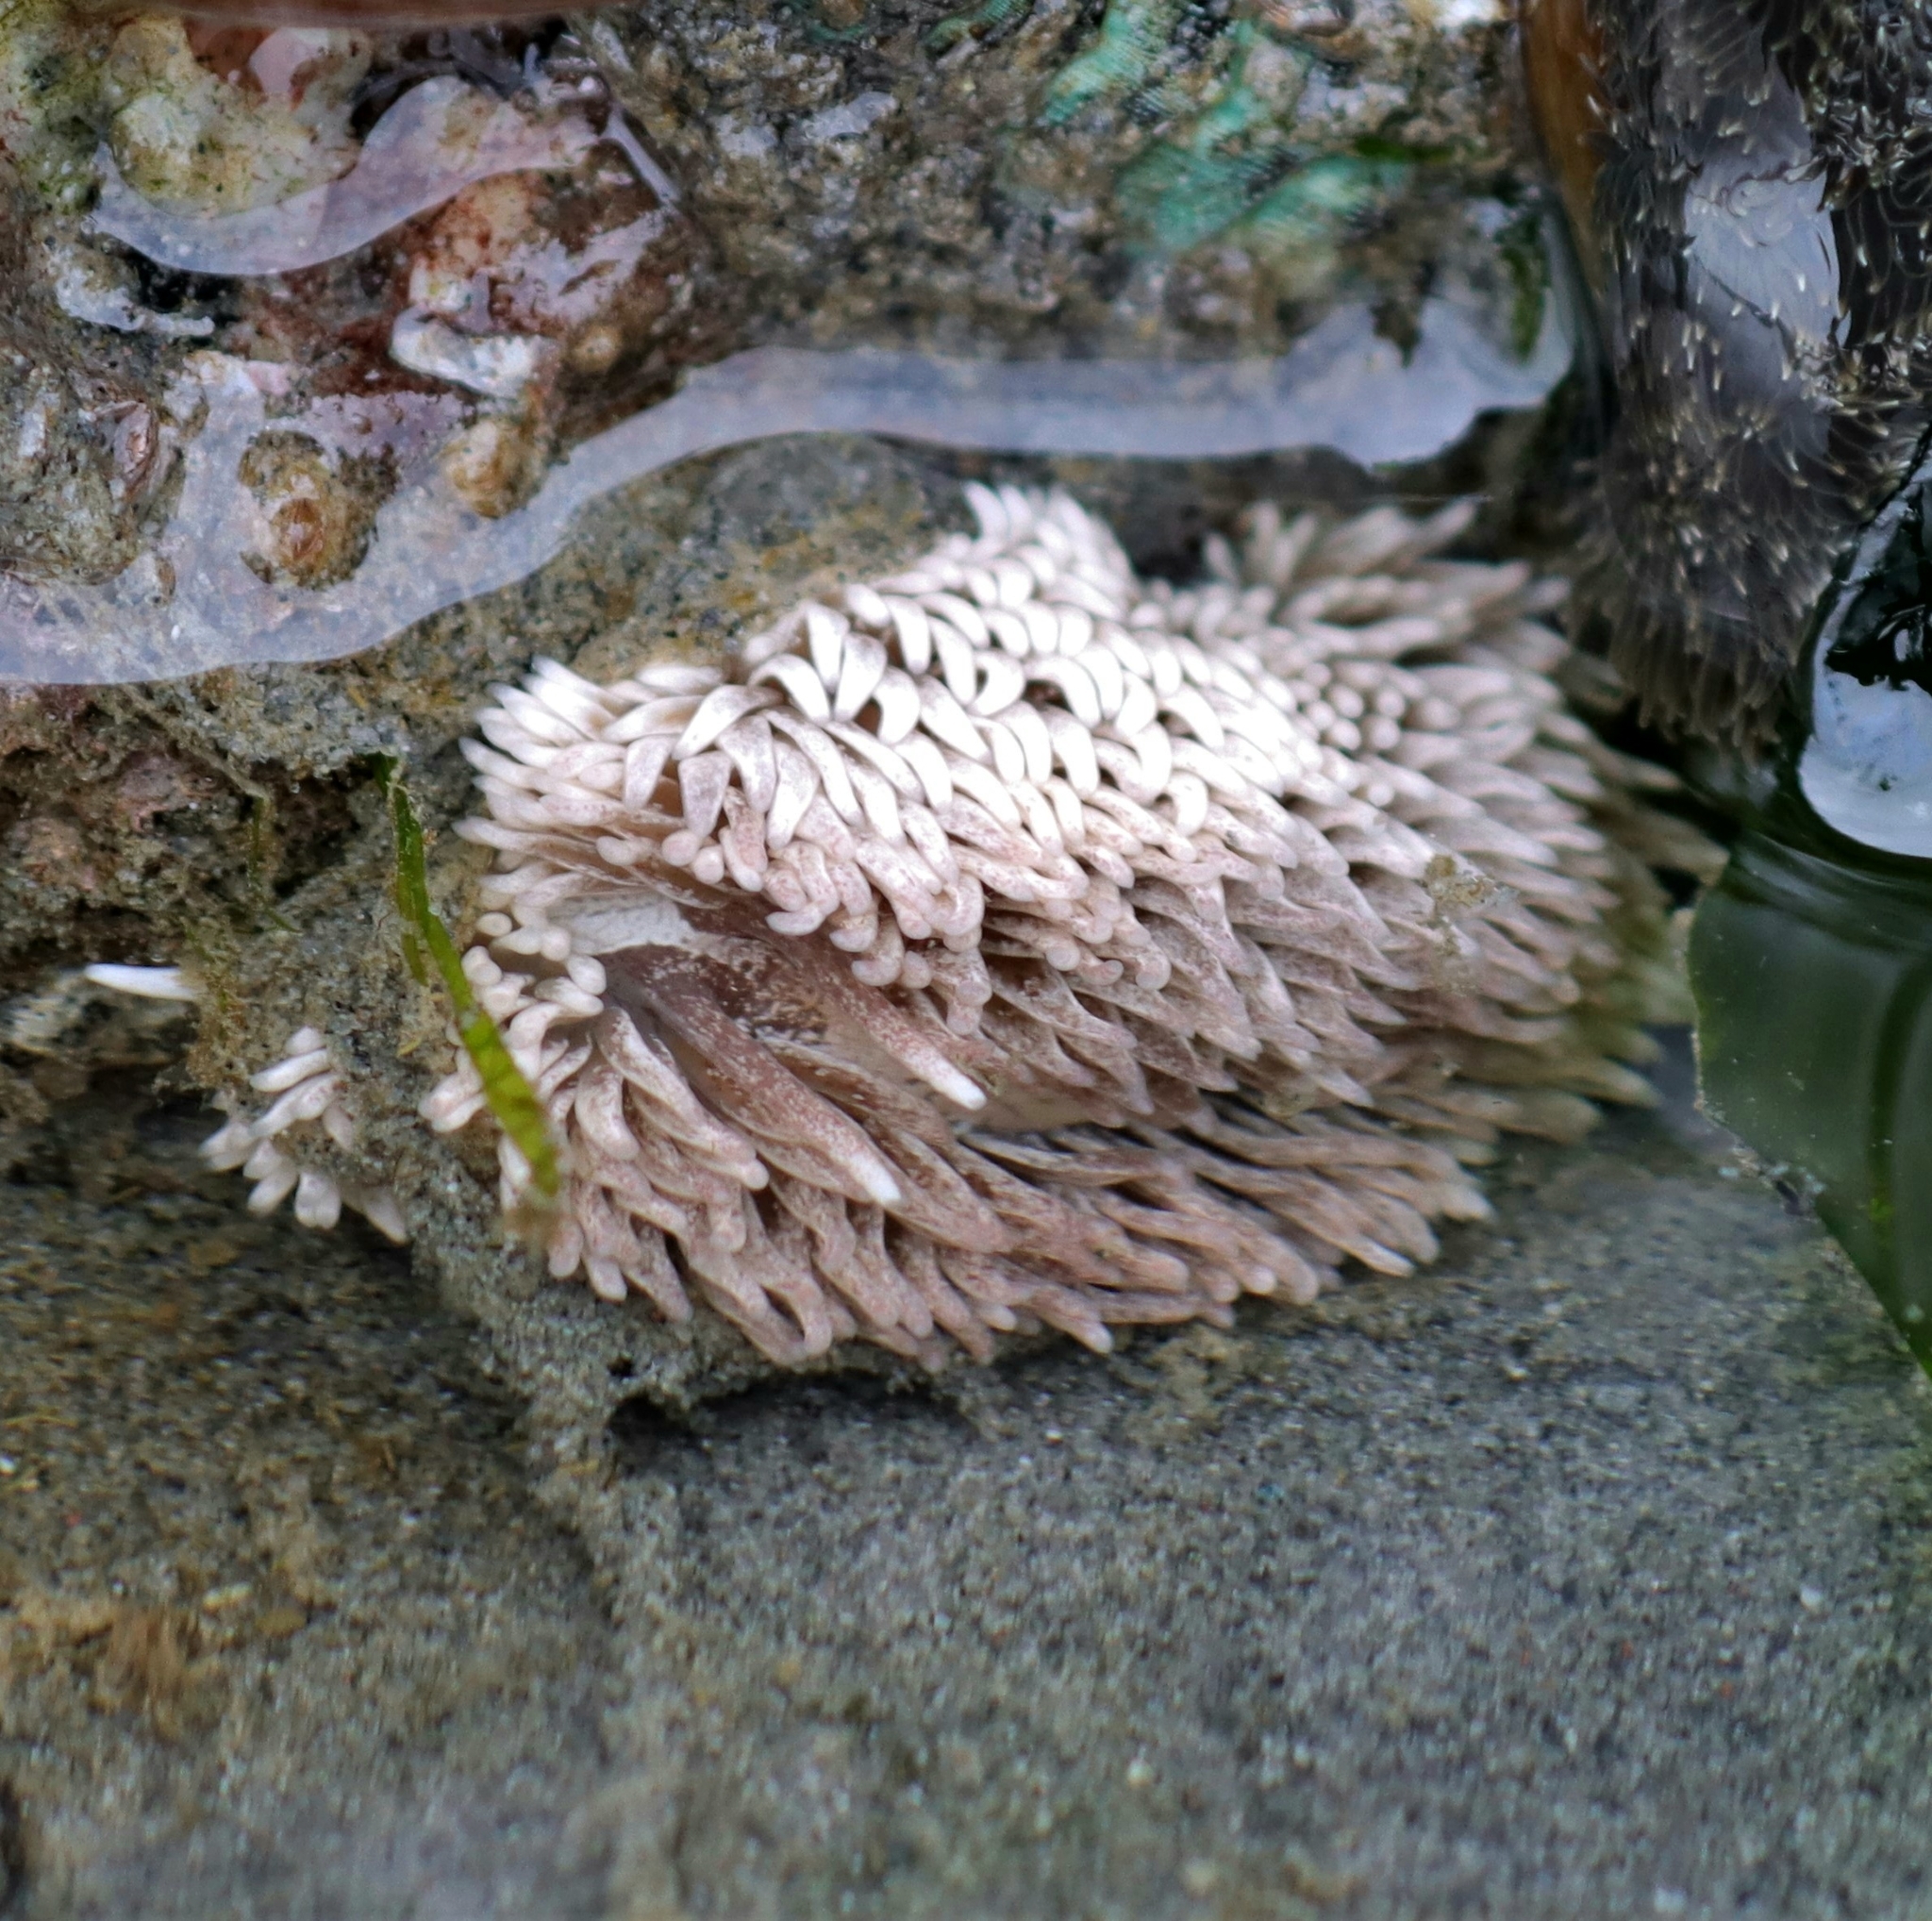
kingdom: Animalia
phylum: Mollusca
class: Gastropoda
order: Nudibranchia
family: Aeolidiidae
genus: Aeolidia
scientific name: Aeolidia papillosa
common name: Common grey sea slug
